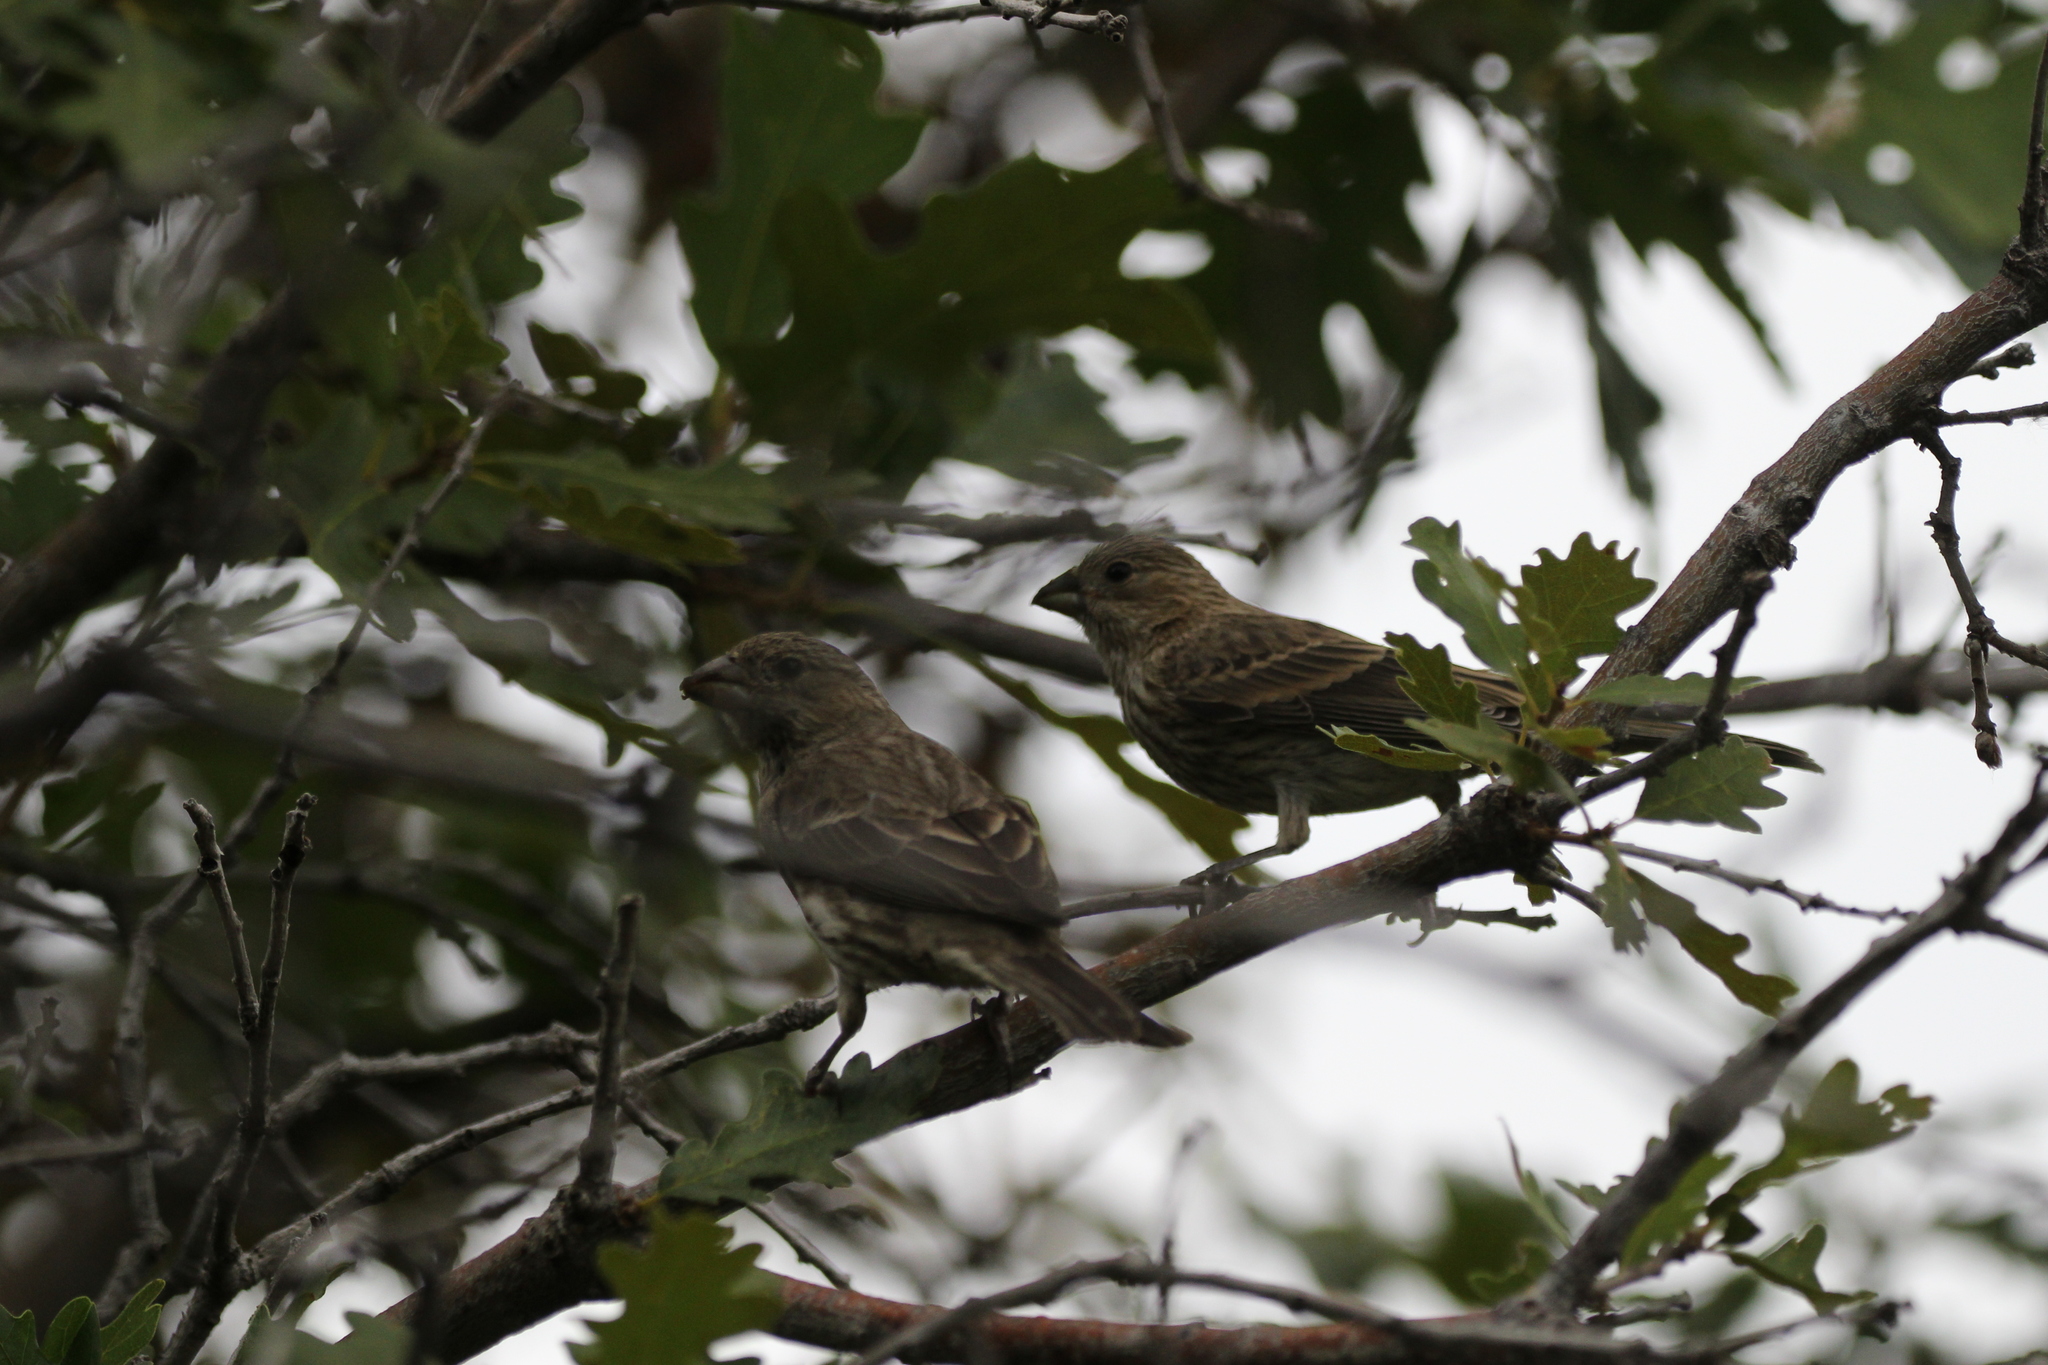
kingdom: Animalia
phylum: Chordata
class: Aves
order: Passeriformes
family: Fringillidae
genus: Haemorhous
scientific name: Haemorhous mexicanus
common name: House finch
